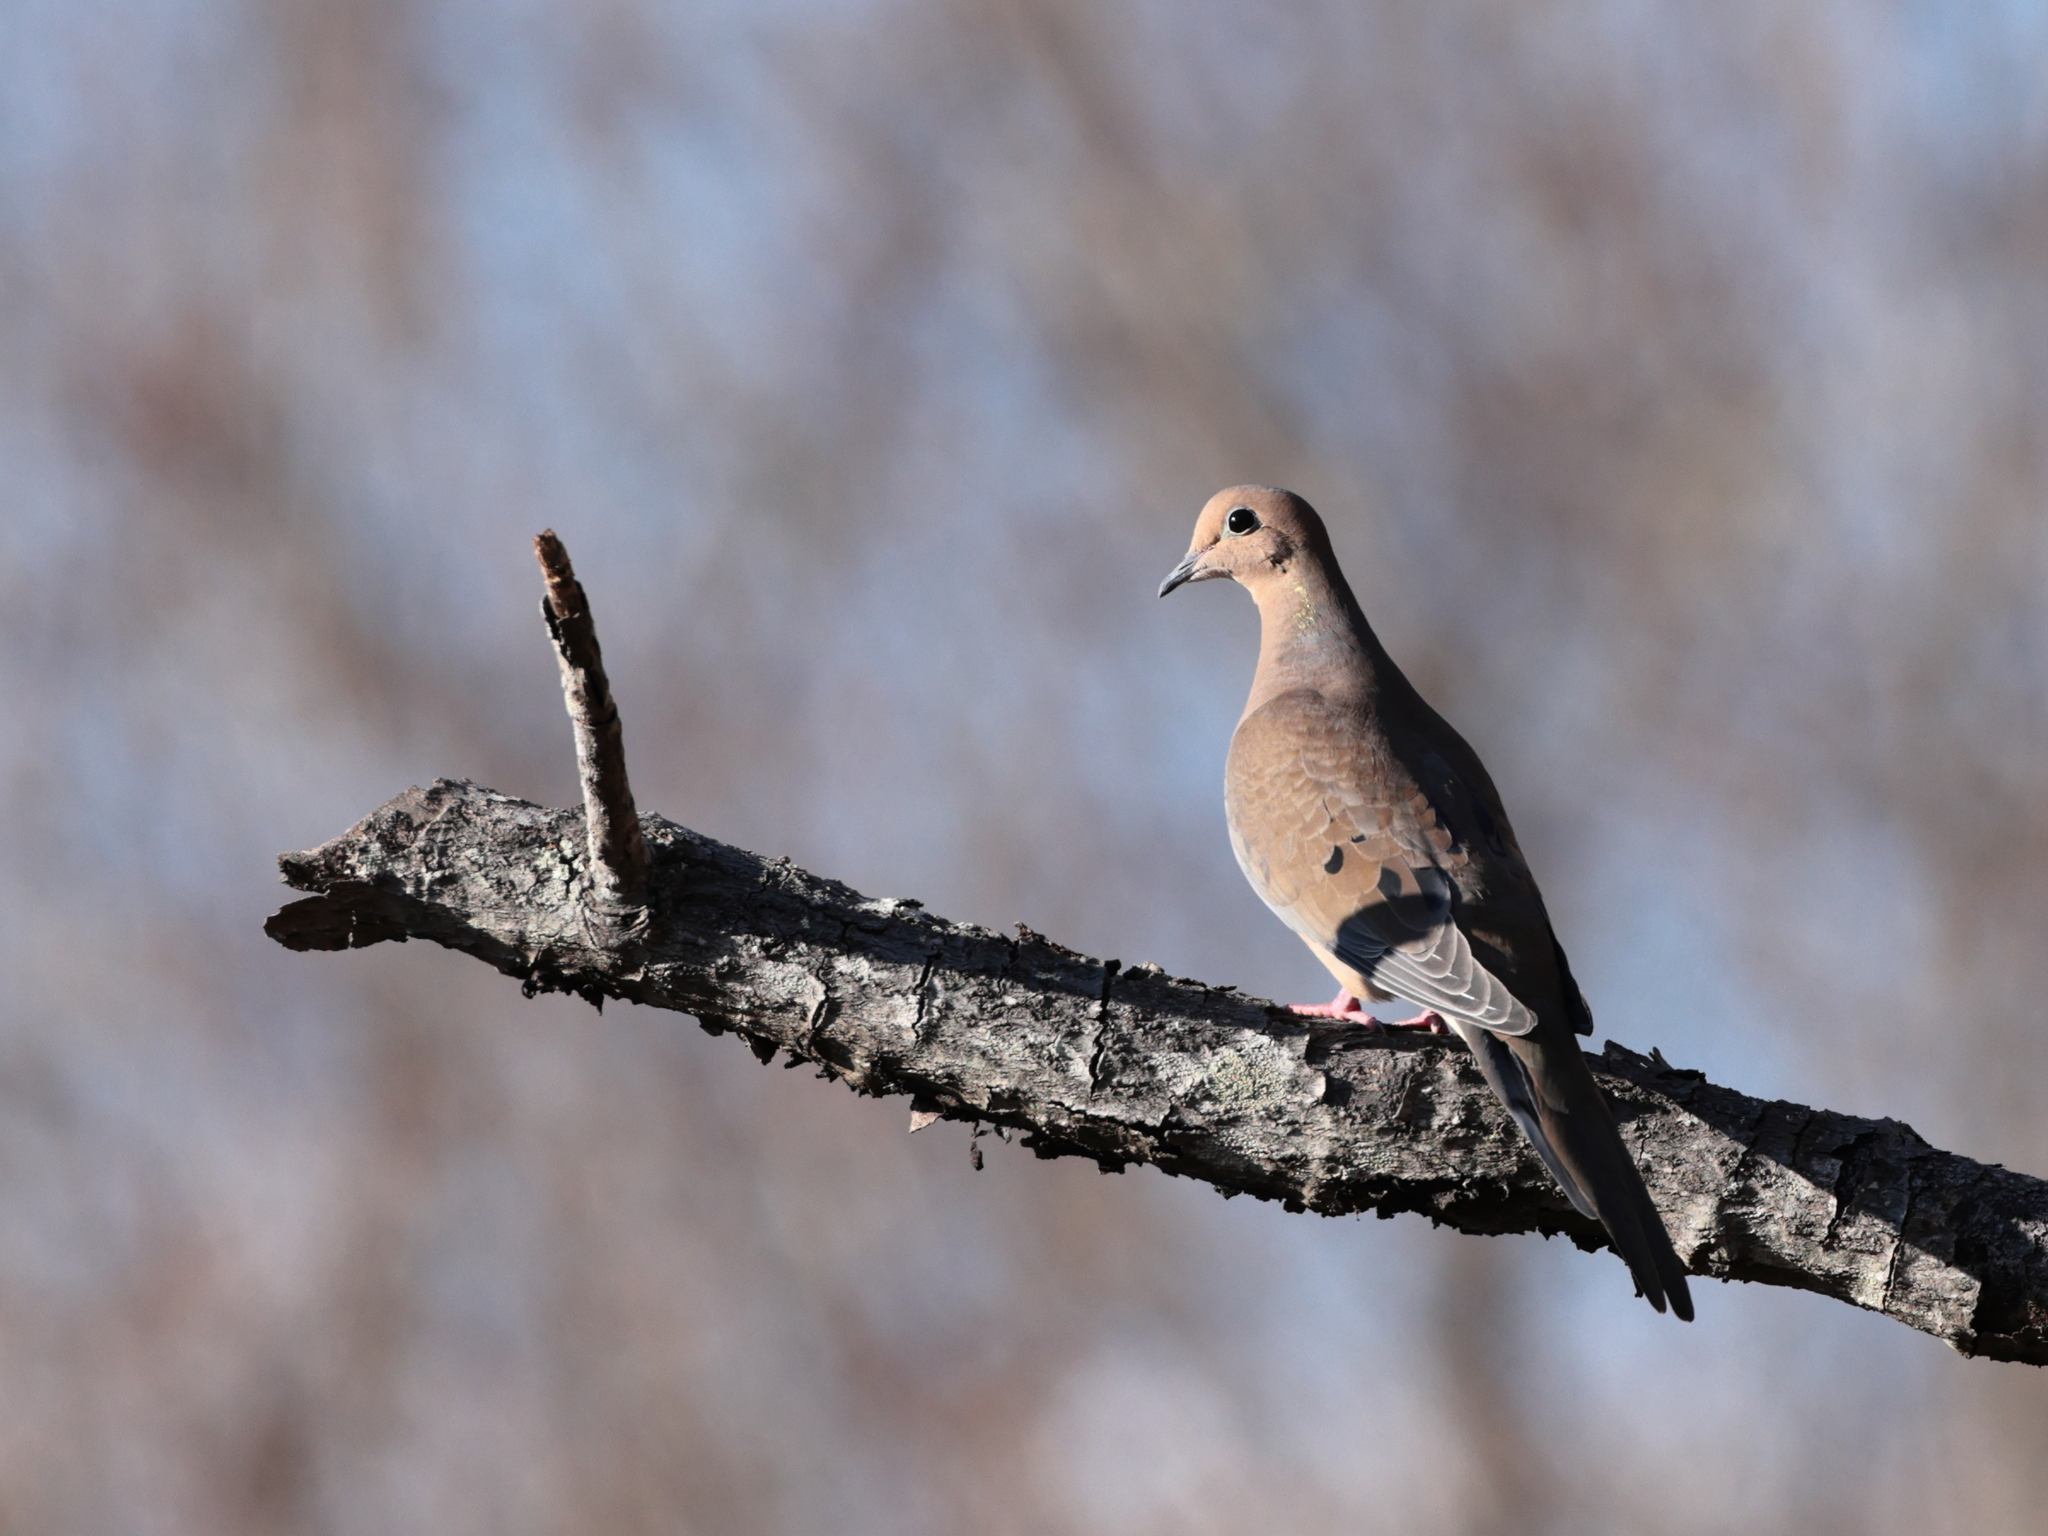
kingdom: Animalia
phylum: Chordata
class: Aves
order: Columbiformes
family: Columbidae
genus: Zenaida
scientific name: Zenaida macroura
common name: Mourning dove
